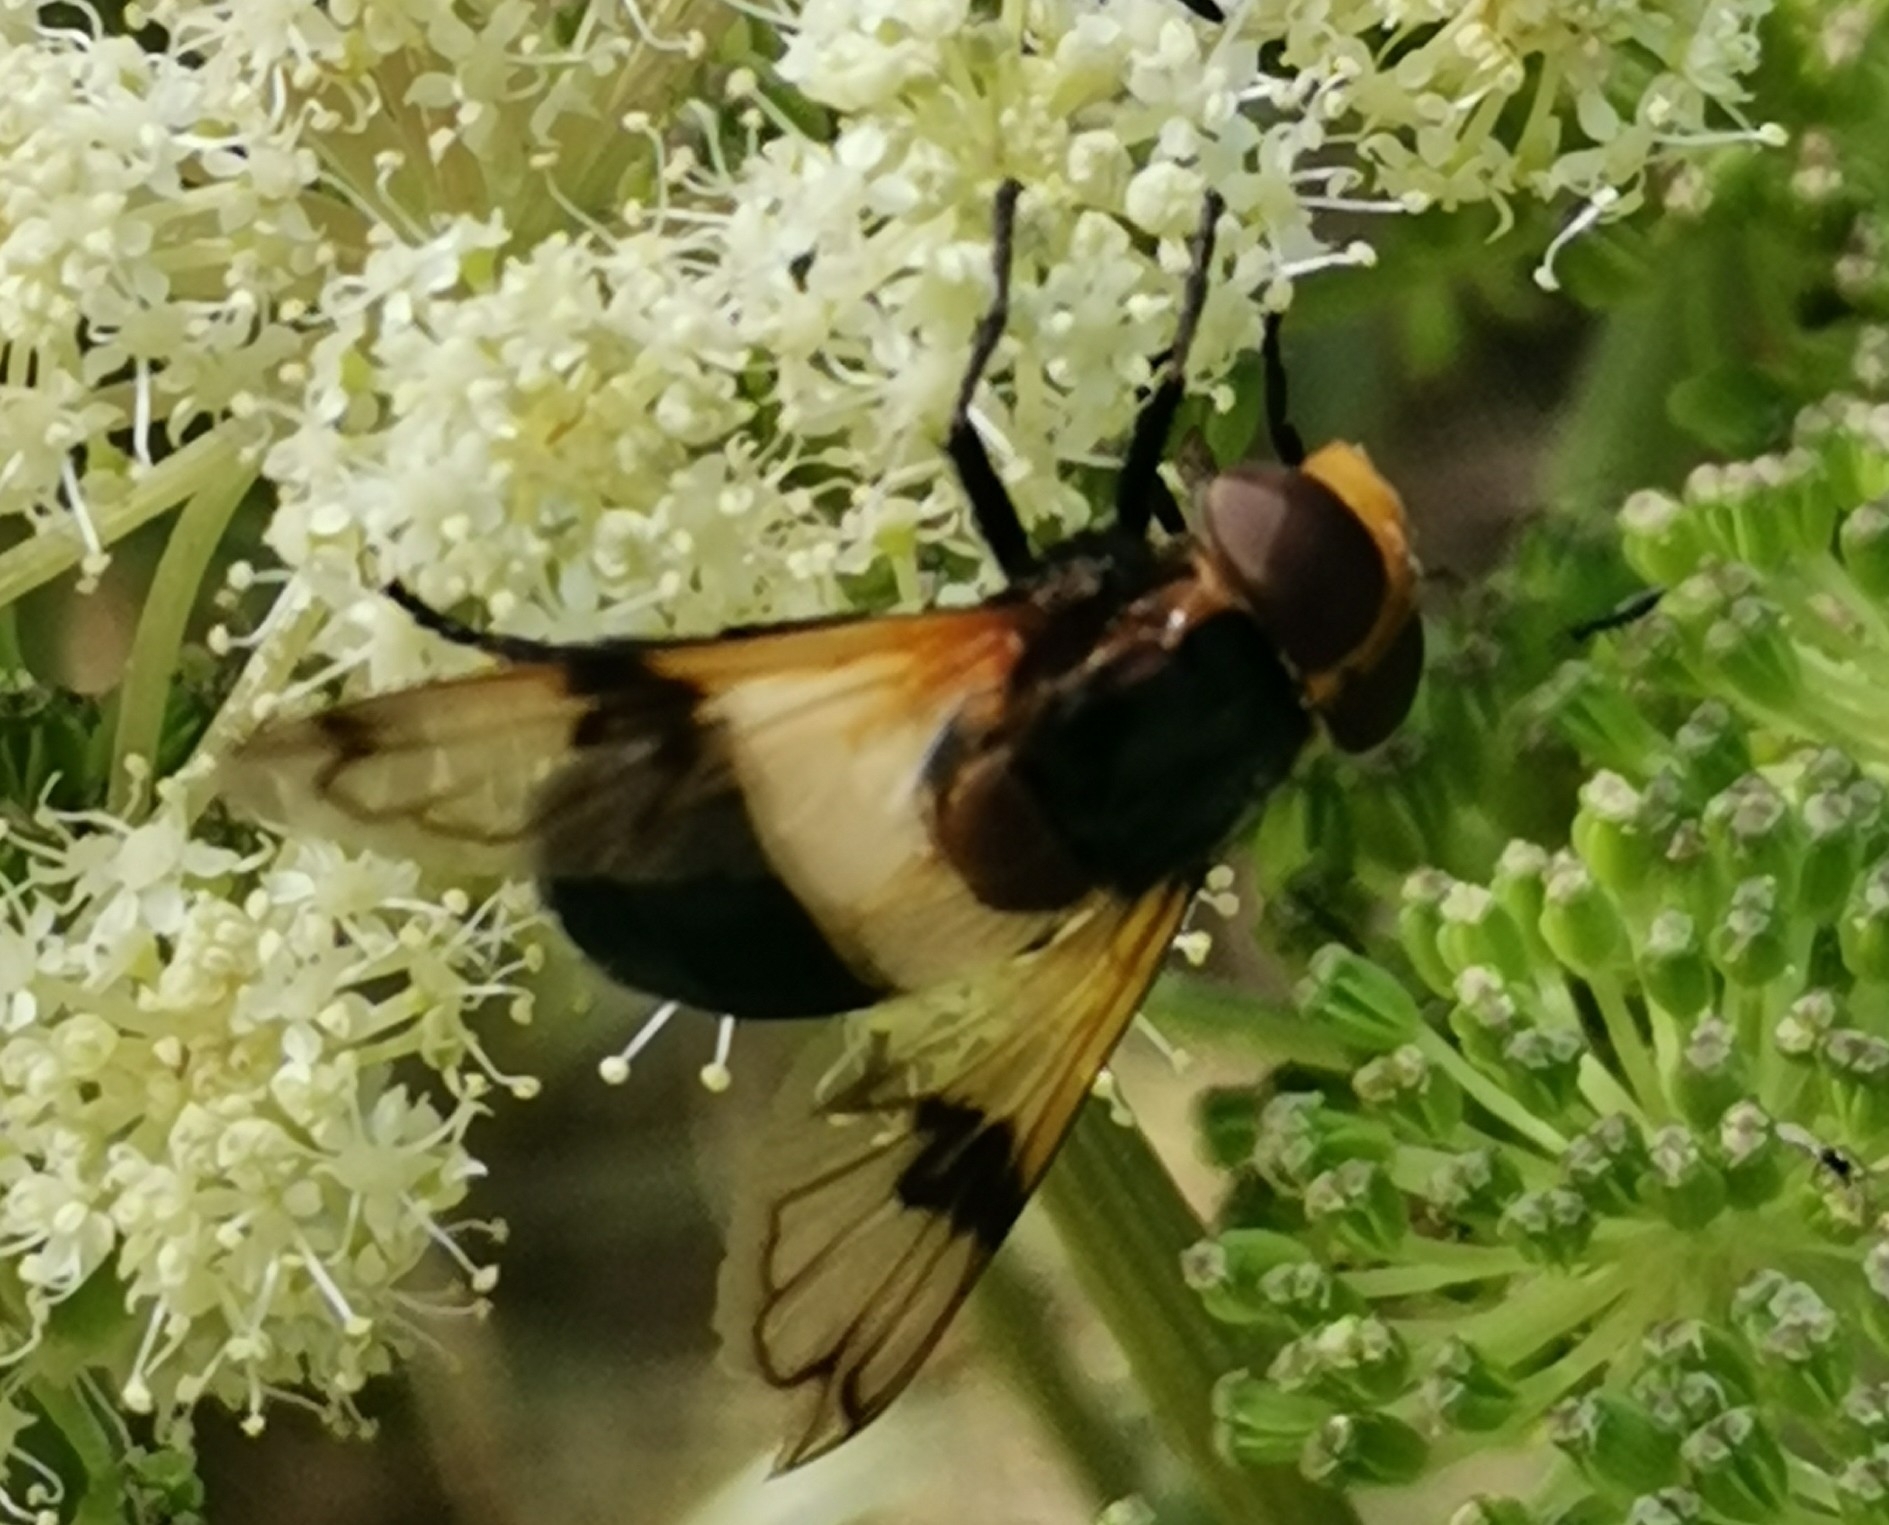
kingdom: Animalia
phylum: Arthropoda
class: Insecta
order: Diptera
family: Syrphidae
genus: Volucella
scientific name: Volucella pellucens
